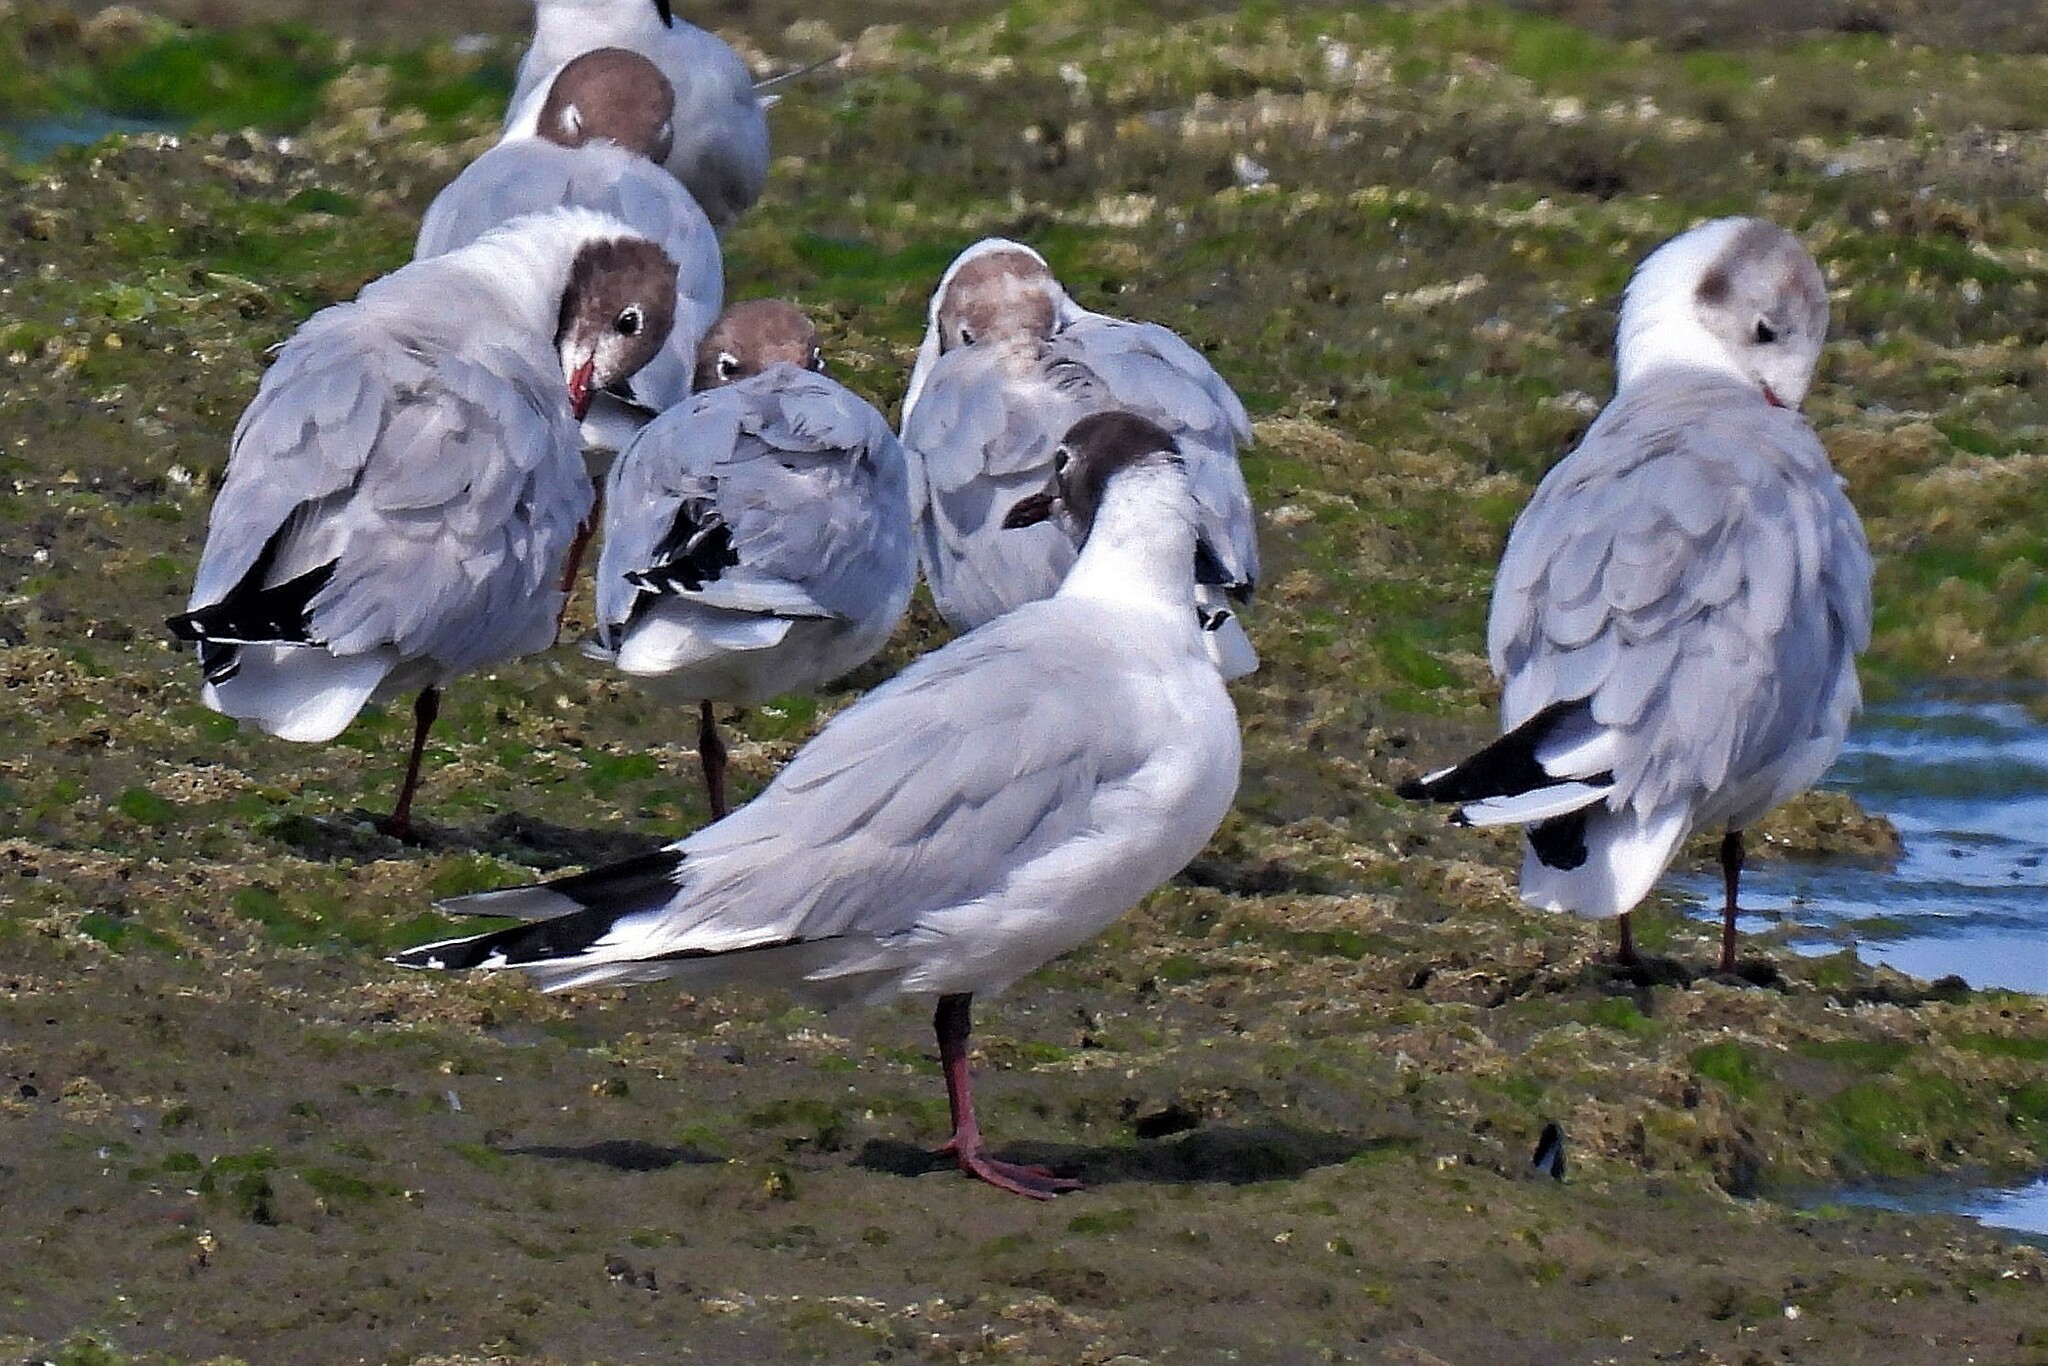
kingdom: Animalia
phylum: Chordata
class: Aves
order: Charadriiformes
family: Laridae
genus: Chroicocephalus
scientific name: Chroicocephalus maculipennis
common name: Brown-hooded gull
